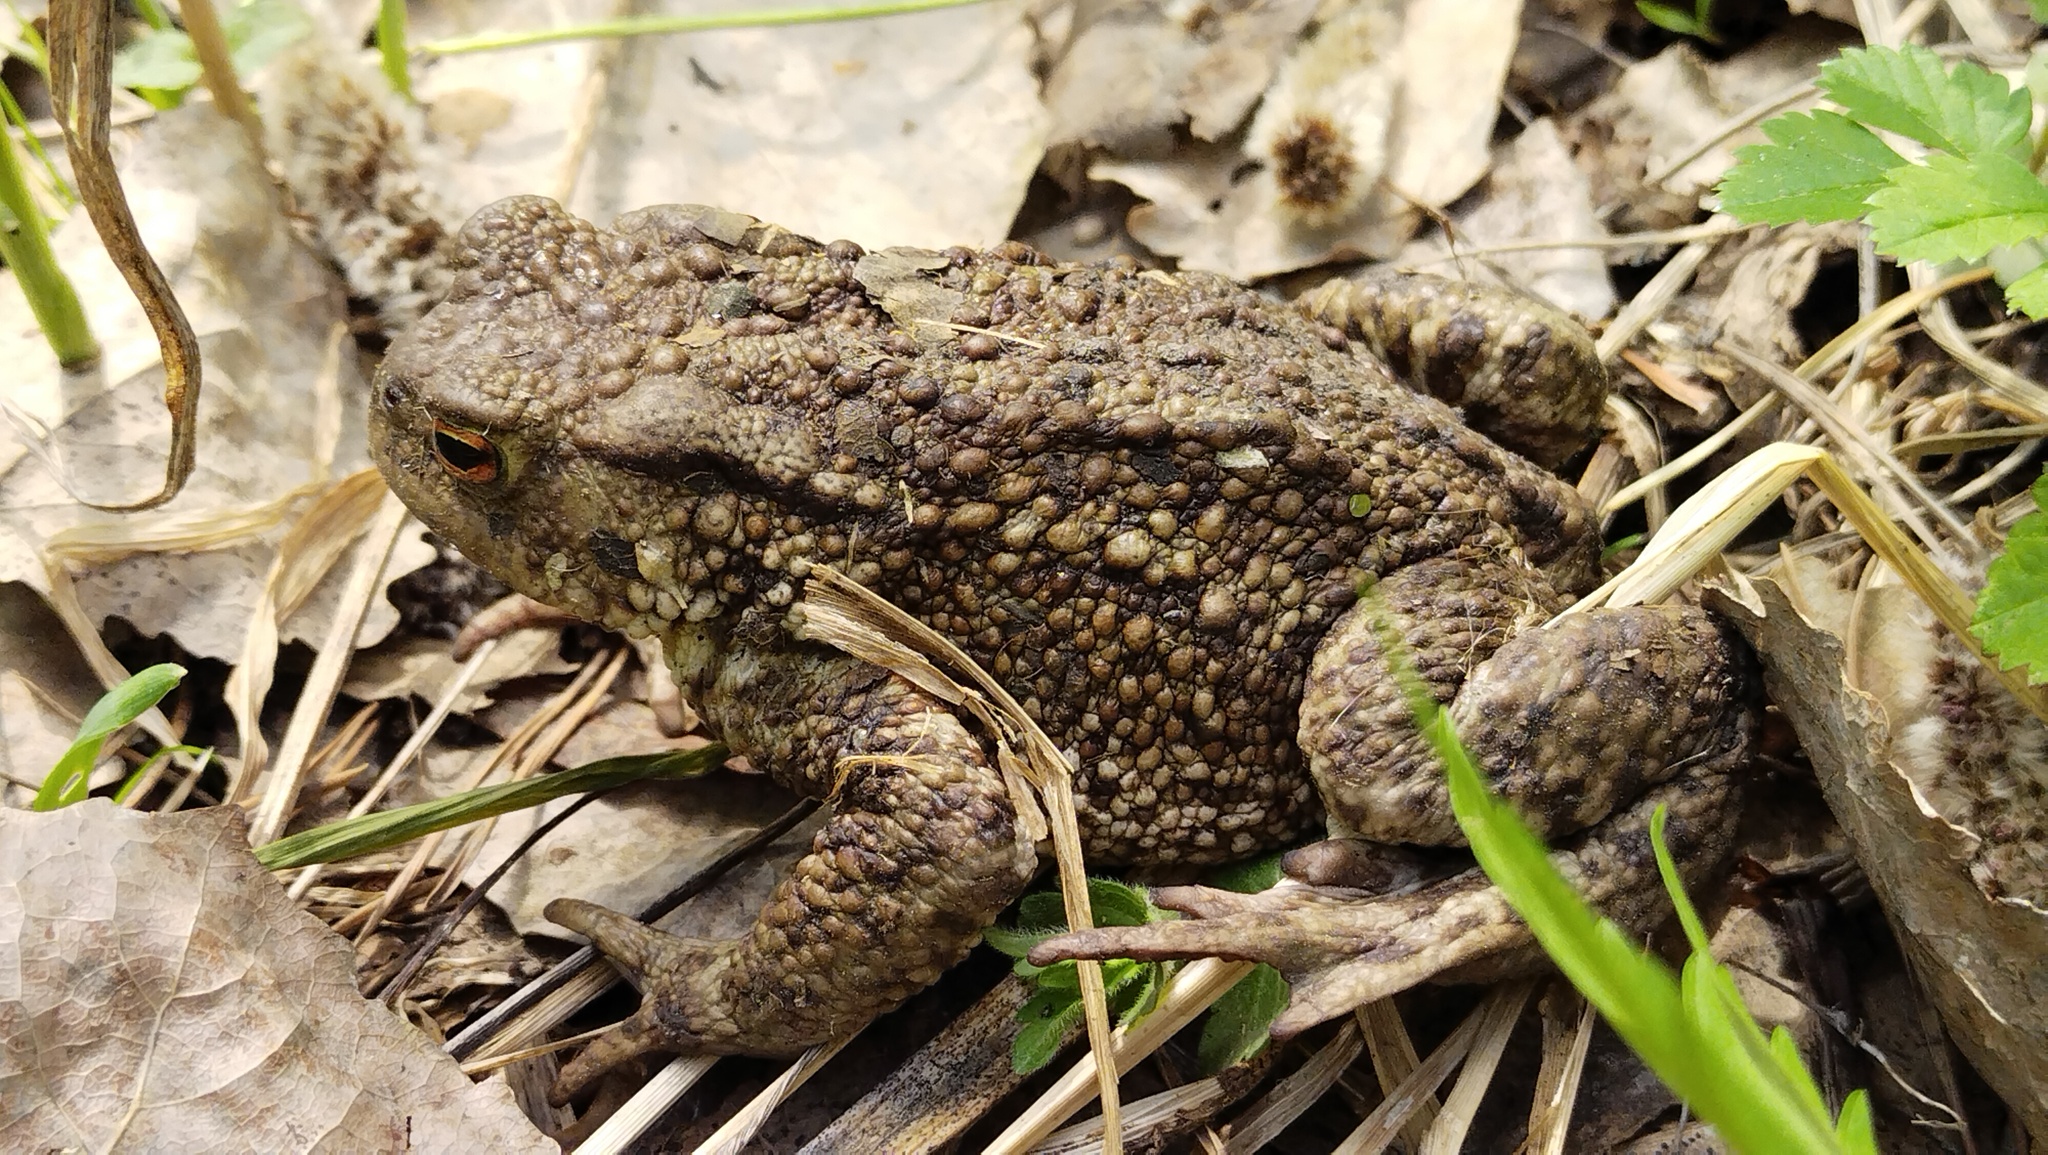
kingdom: Animalia
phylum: Chordata
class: Amphibia
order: Anura
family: Bufonidae
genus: Bufo
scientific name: Bufo bufo
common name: Common toad
